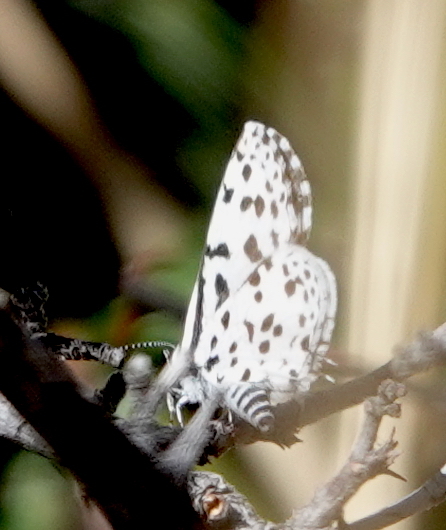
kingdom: Animalia
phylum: Arthropoda
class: Insecta
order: Lepidoptera
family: Lycaenidae
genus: Tarucus
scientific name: Tarucus sybaris
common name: Dotted blue
